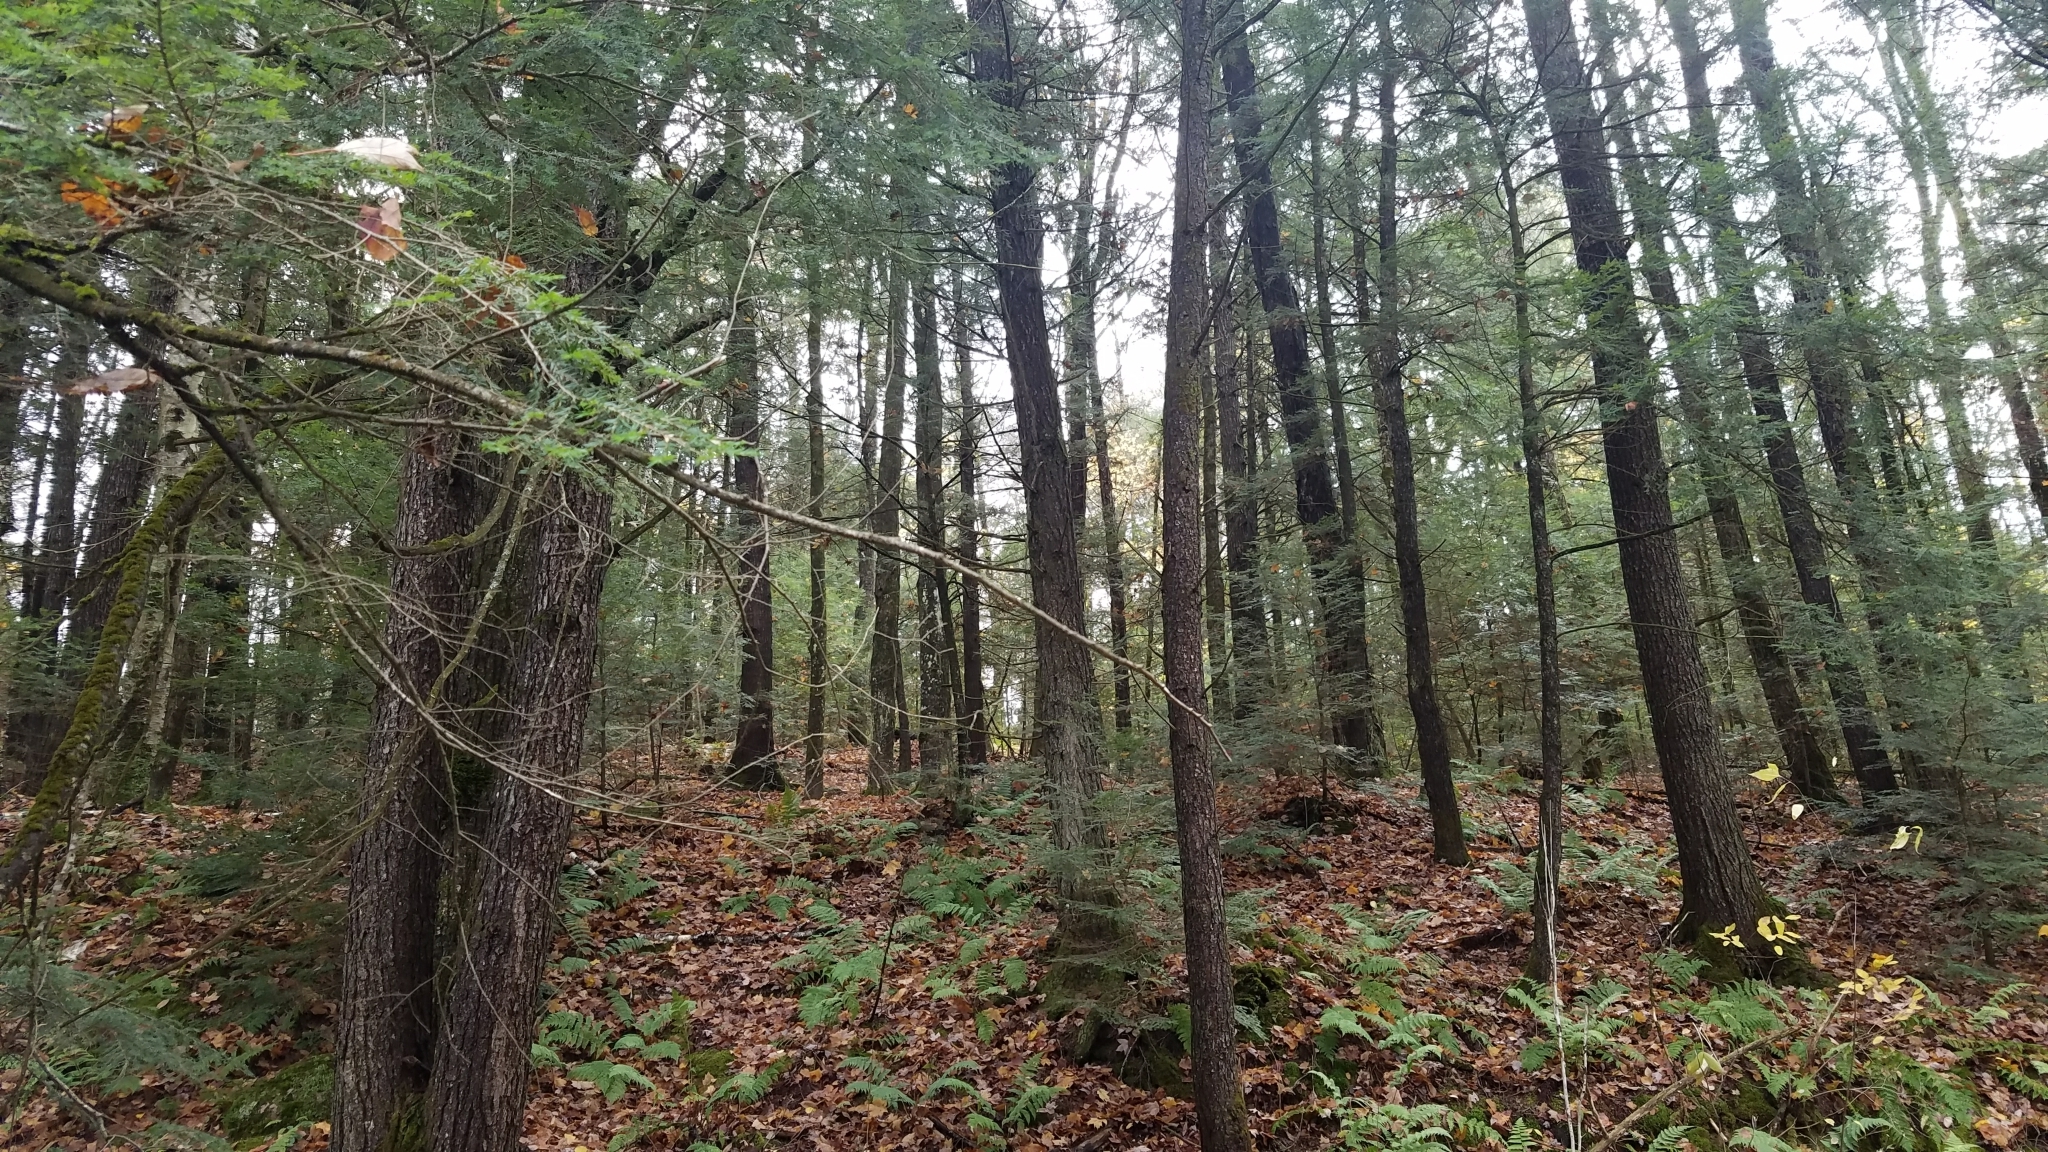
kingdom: Plantae
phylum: Tracheophyta
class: Pinopsida
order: Pinales
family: Pinaceae
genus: Tsuga
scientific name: Tsuga canadensis
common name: Eastern hemlock
